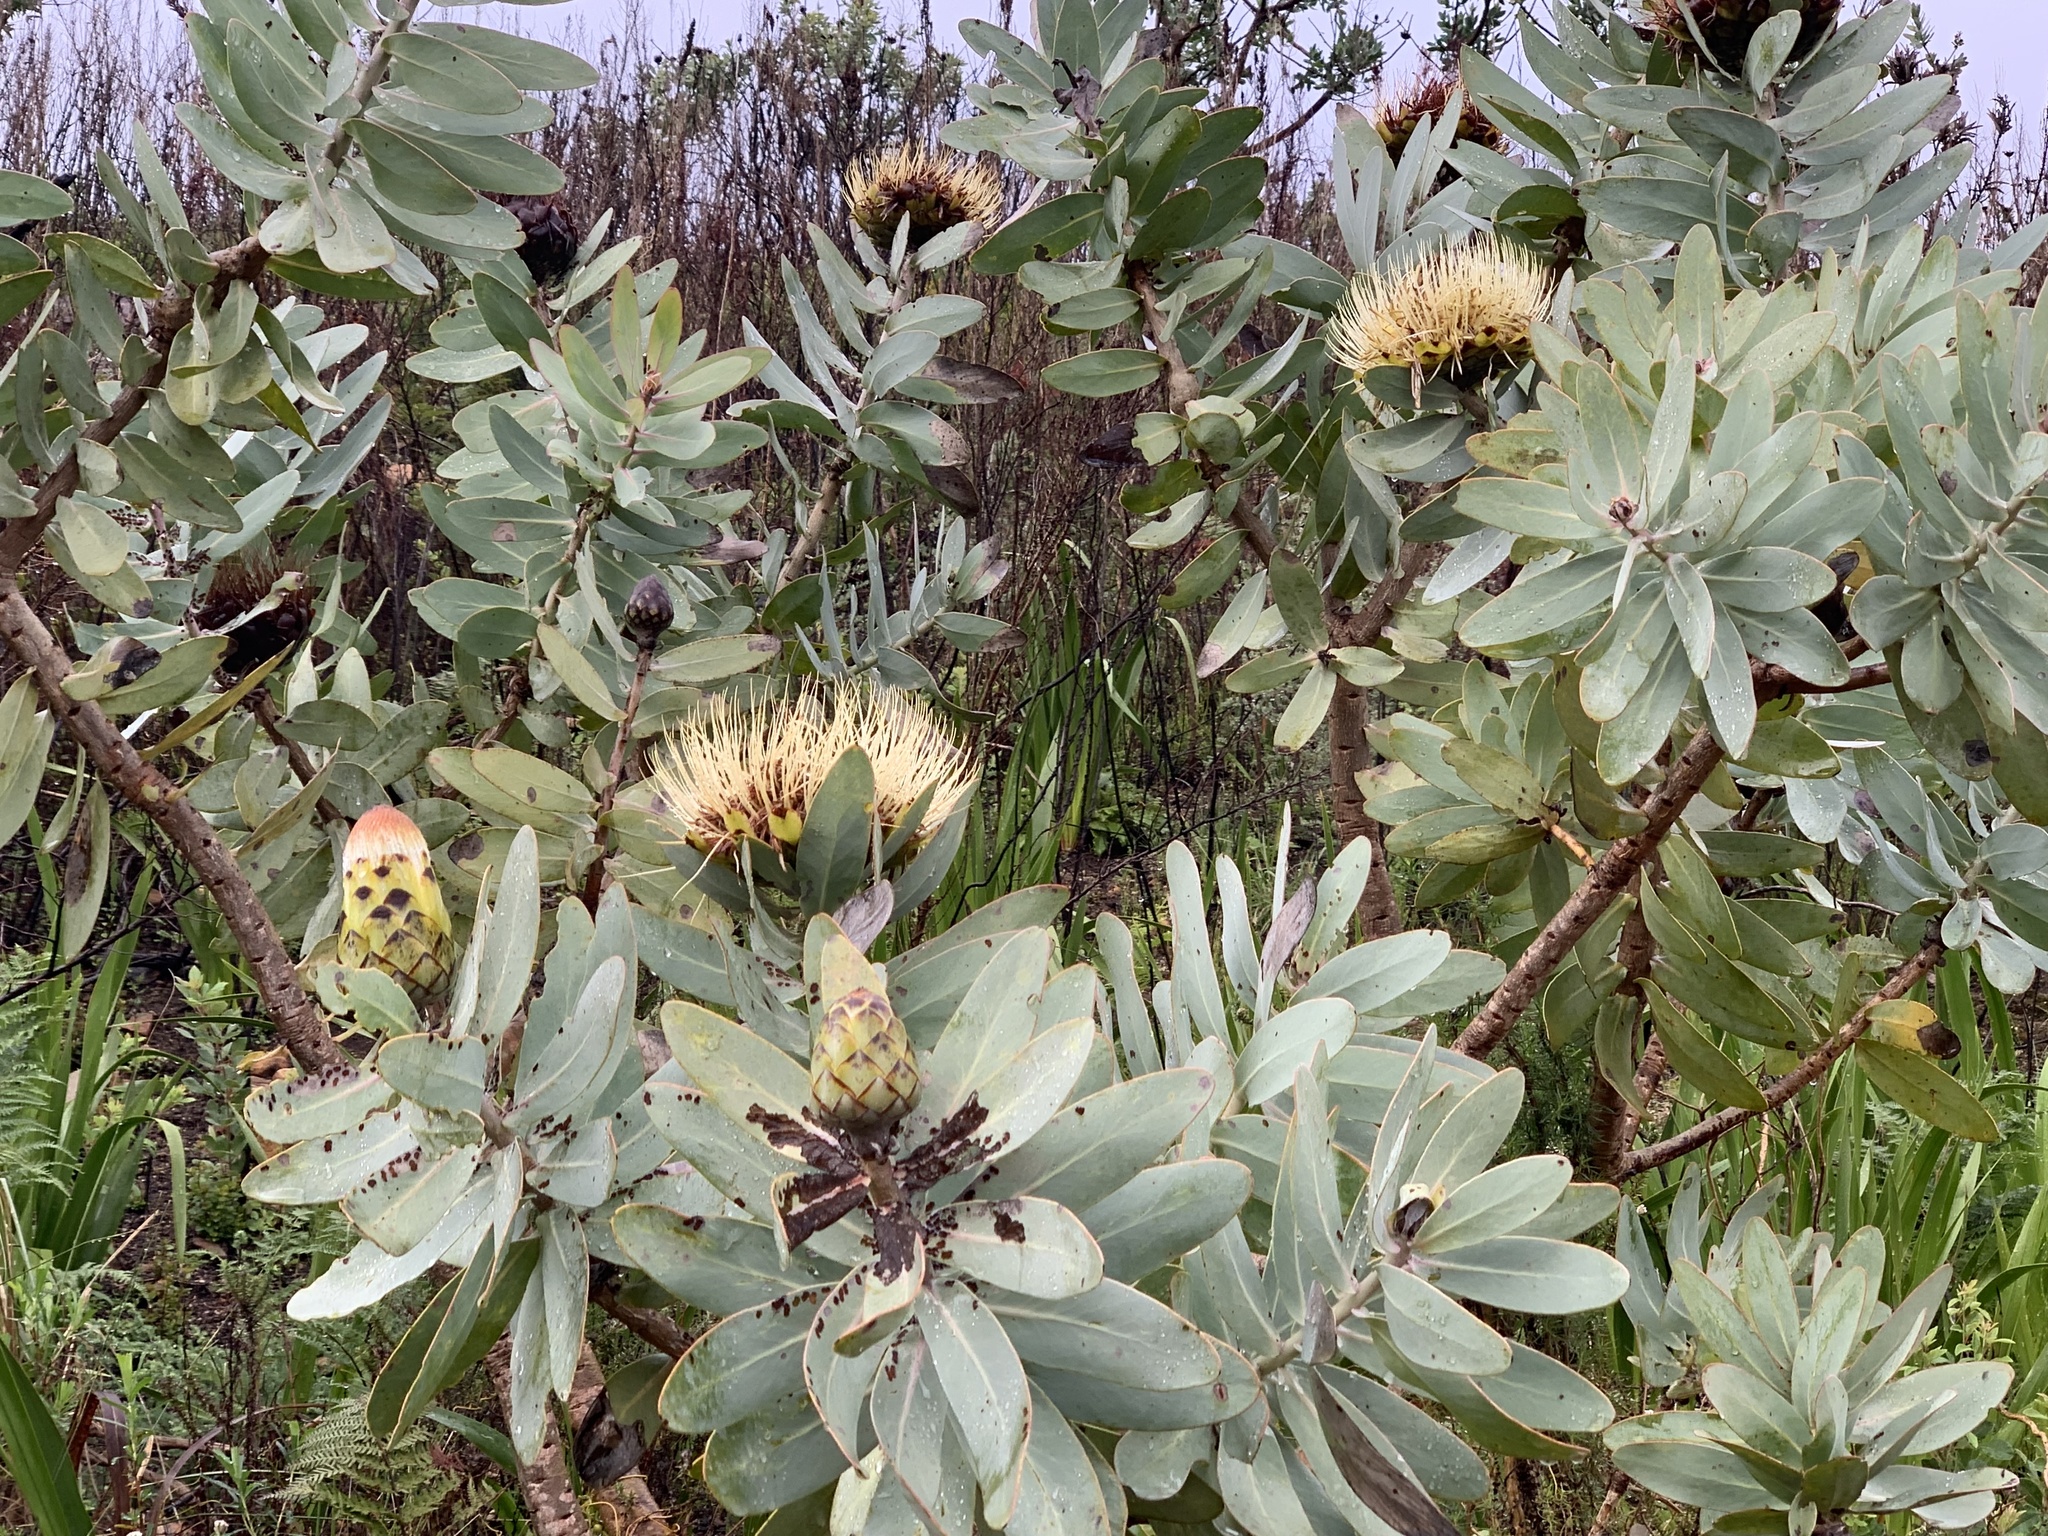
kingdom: Plantae
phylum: Tracheophyta
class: Magnoliopsida
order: Proteales
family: Proteaceae
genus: Protea
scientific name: Protea nitida
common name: Tree protea
